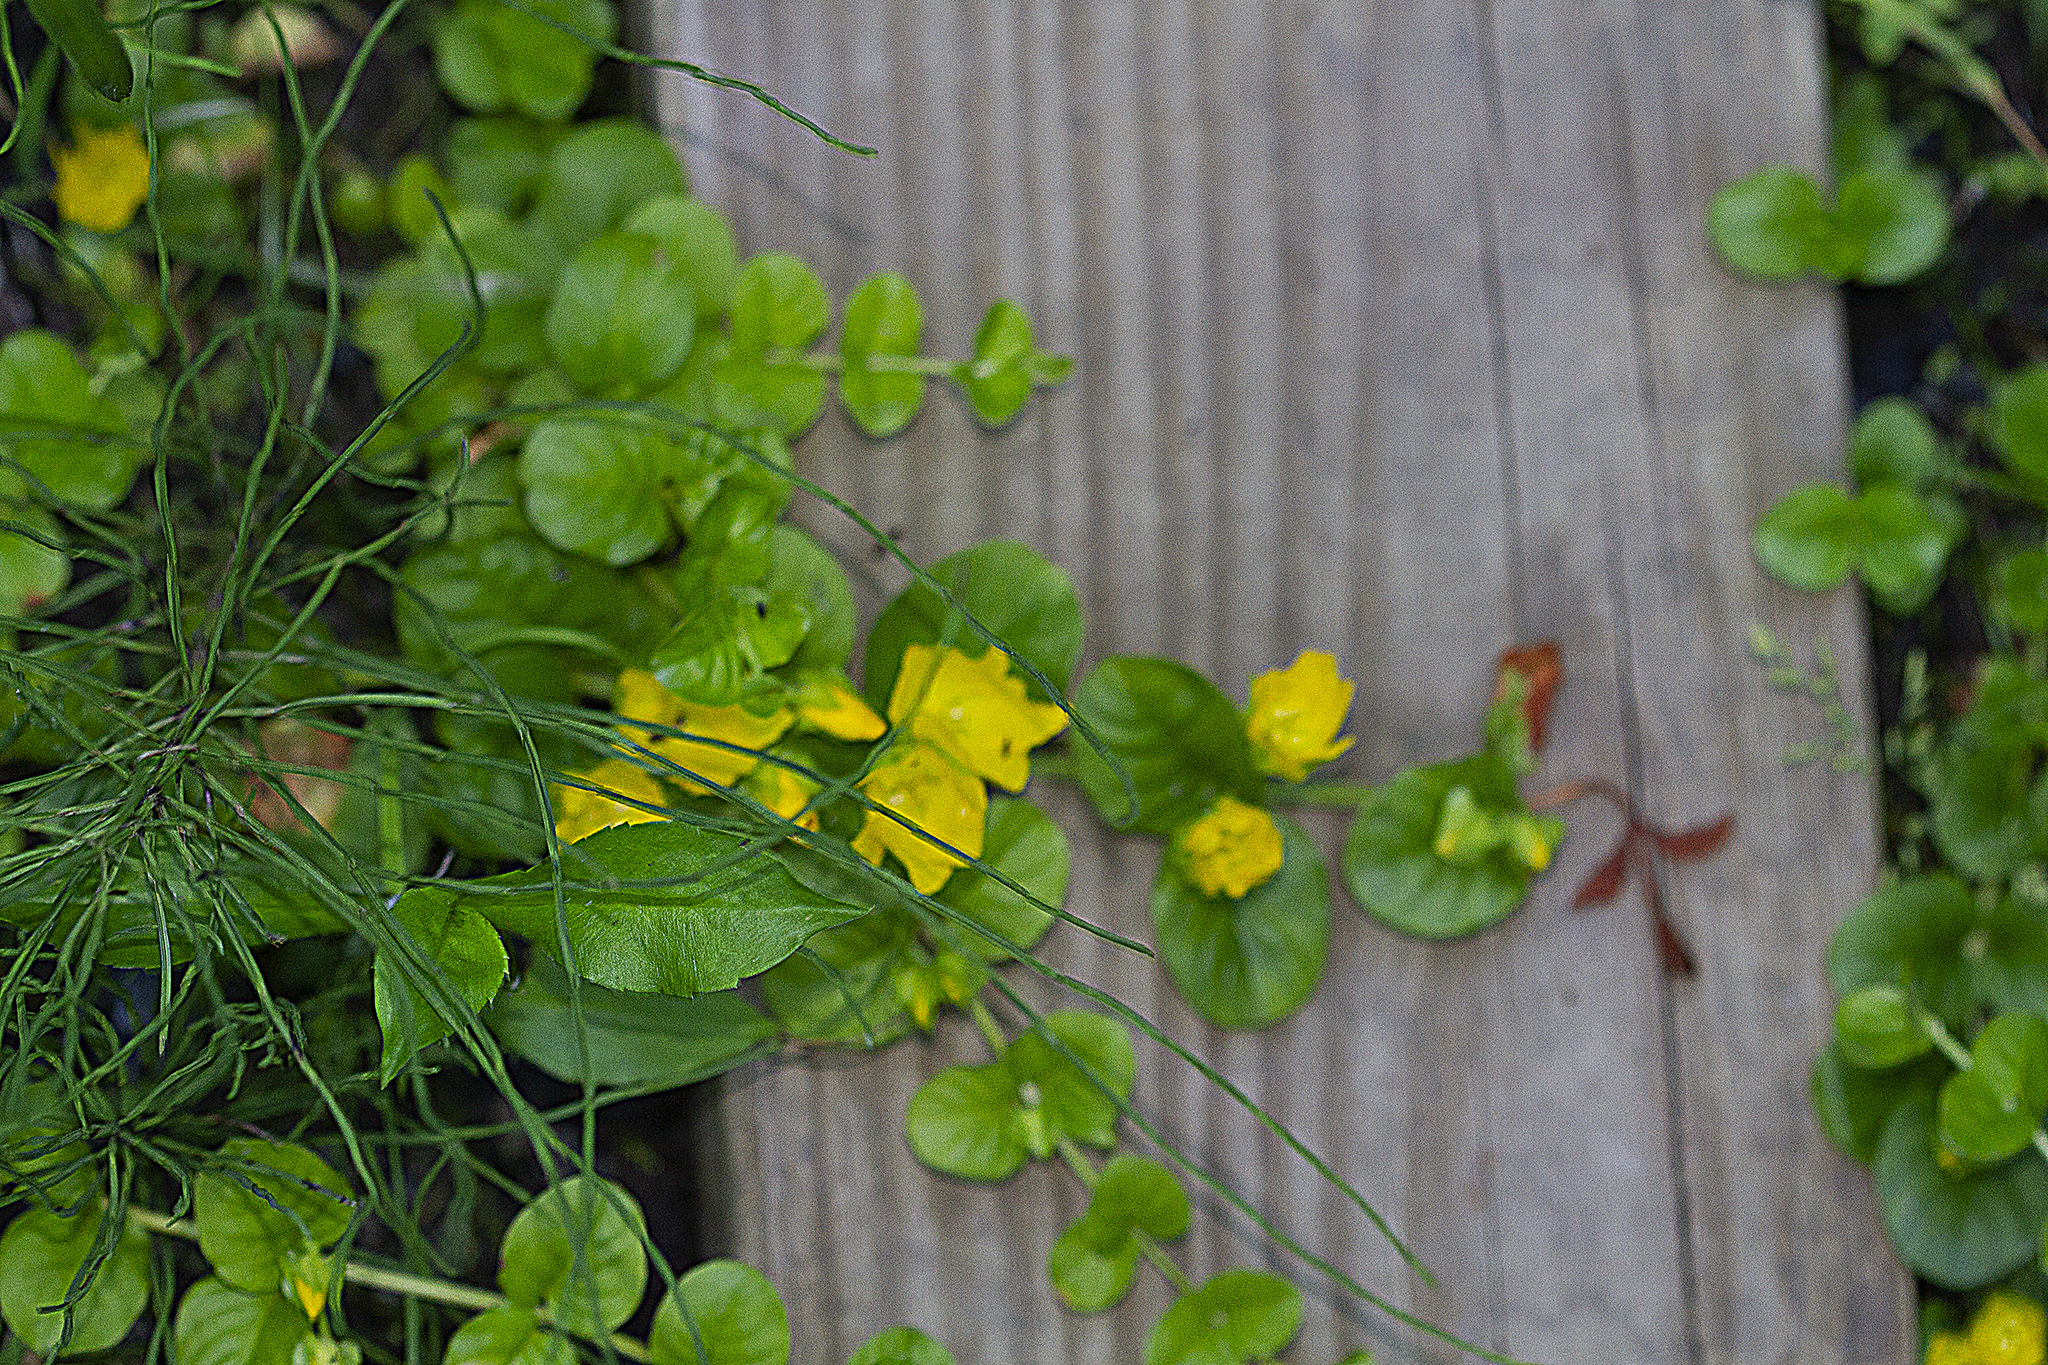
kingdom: Plantae
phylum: Tracheophyta
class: Magnoliopsida
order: Ericales
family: Primulaceae
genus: Lysimachia
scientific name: Lysimachia nummularia
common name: Moneywort
